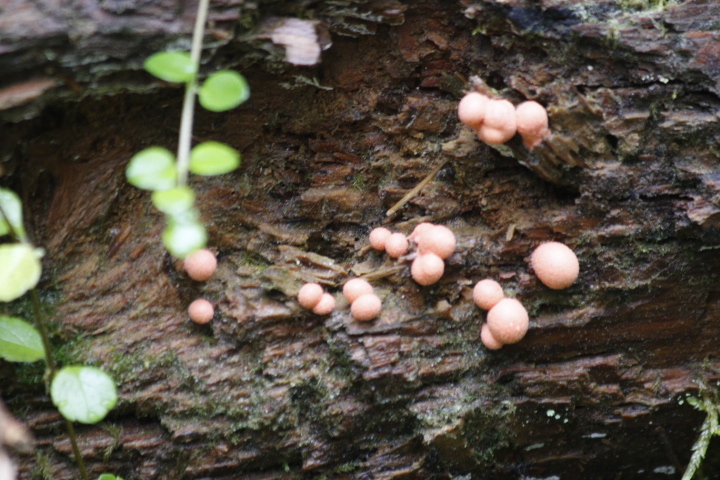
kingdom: Protozoa
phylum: Mycetozoa
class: Myxomycetes
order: Cribrariales
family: Tubiferaceae
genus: Lycogala
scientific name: Lycogala epidendrum
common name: Wolf's milk
